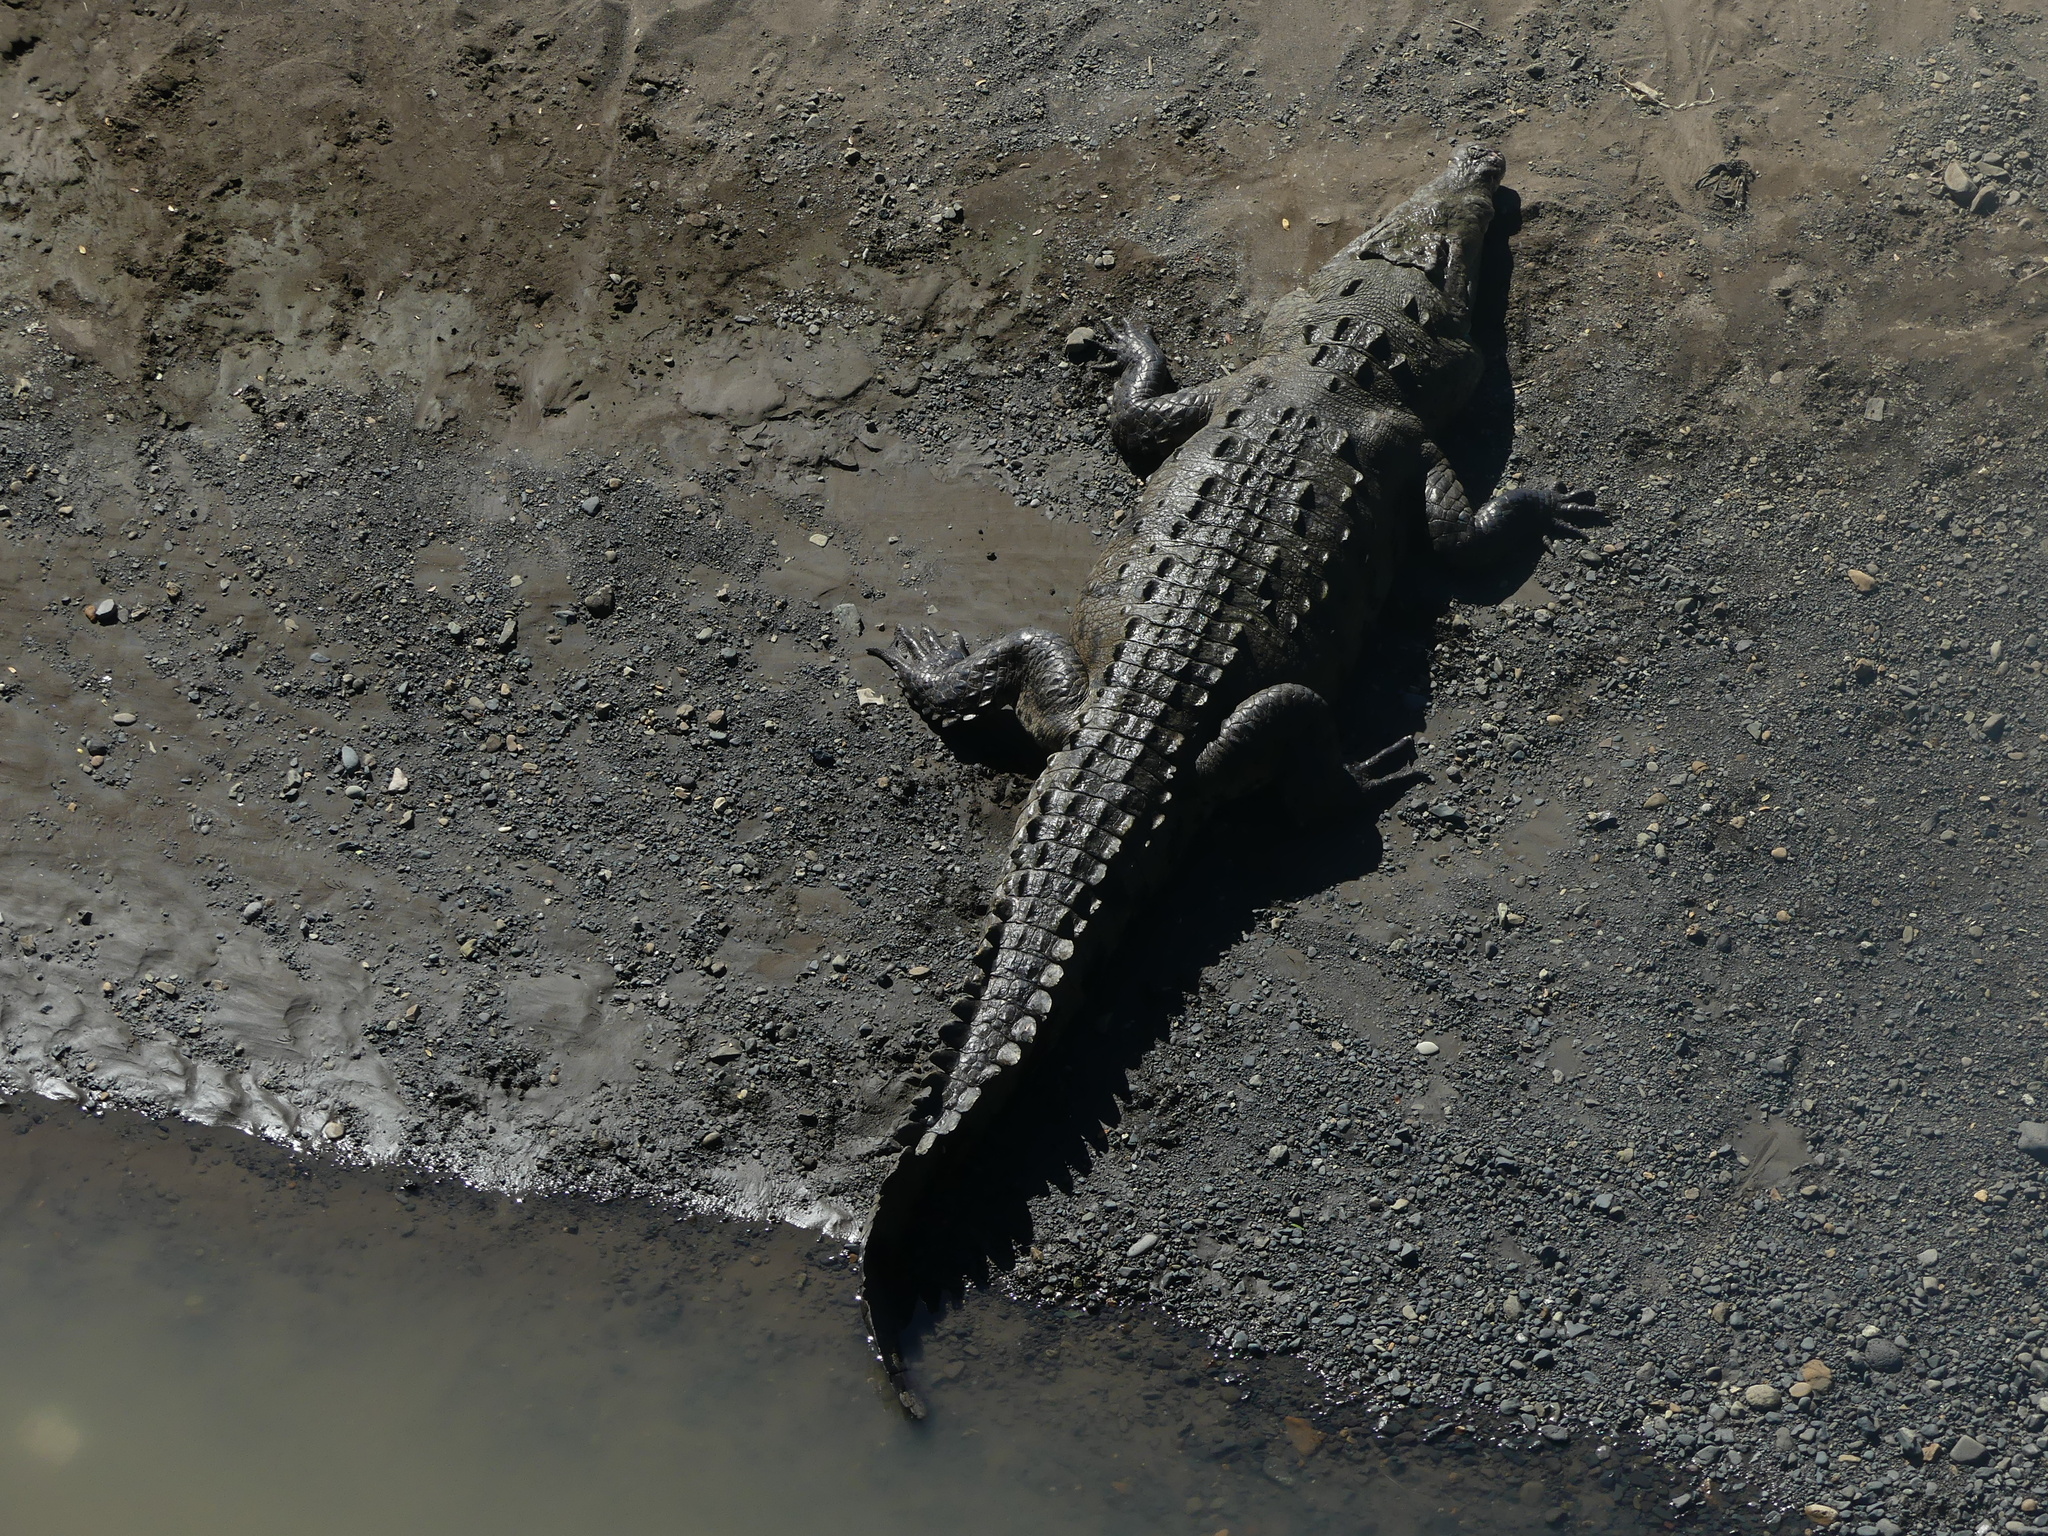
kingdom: Animalia
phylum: Chordata
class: Crocodylia
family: Crocodylidae
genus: Crocodylus
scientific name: Crocodylus acutus
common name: American crocodile
